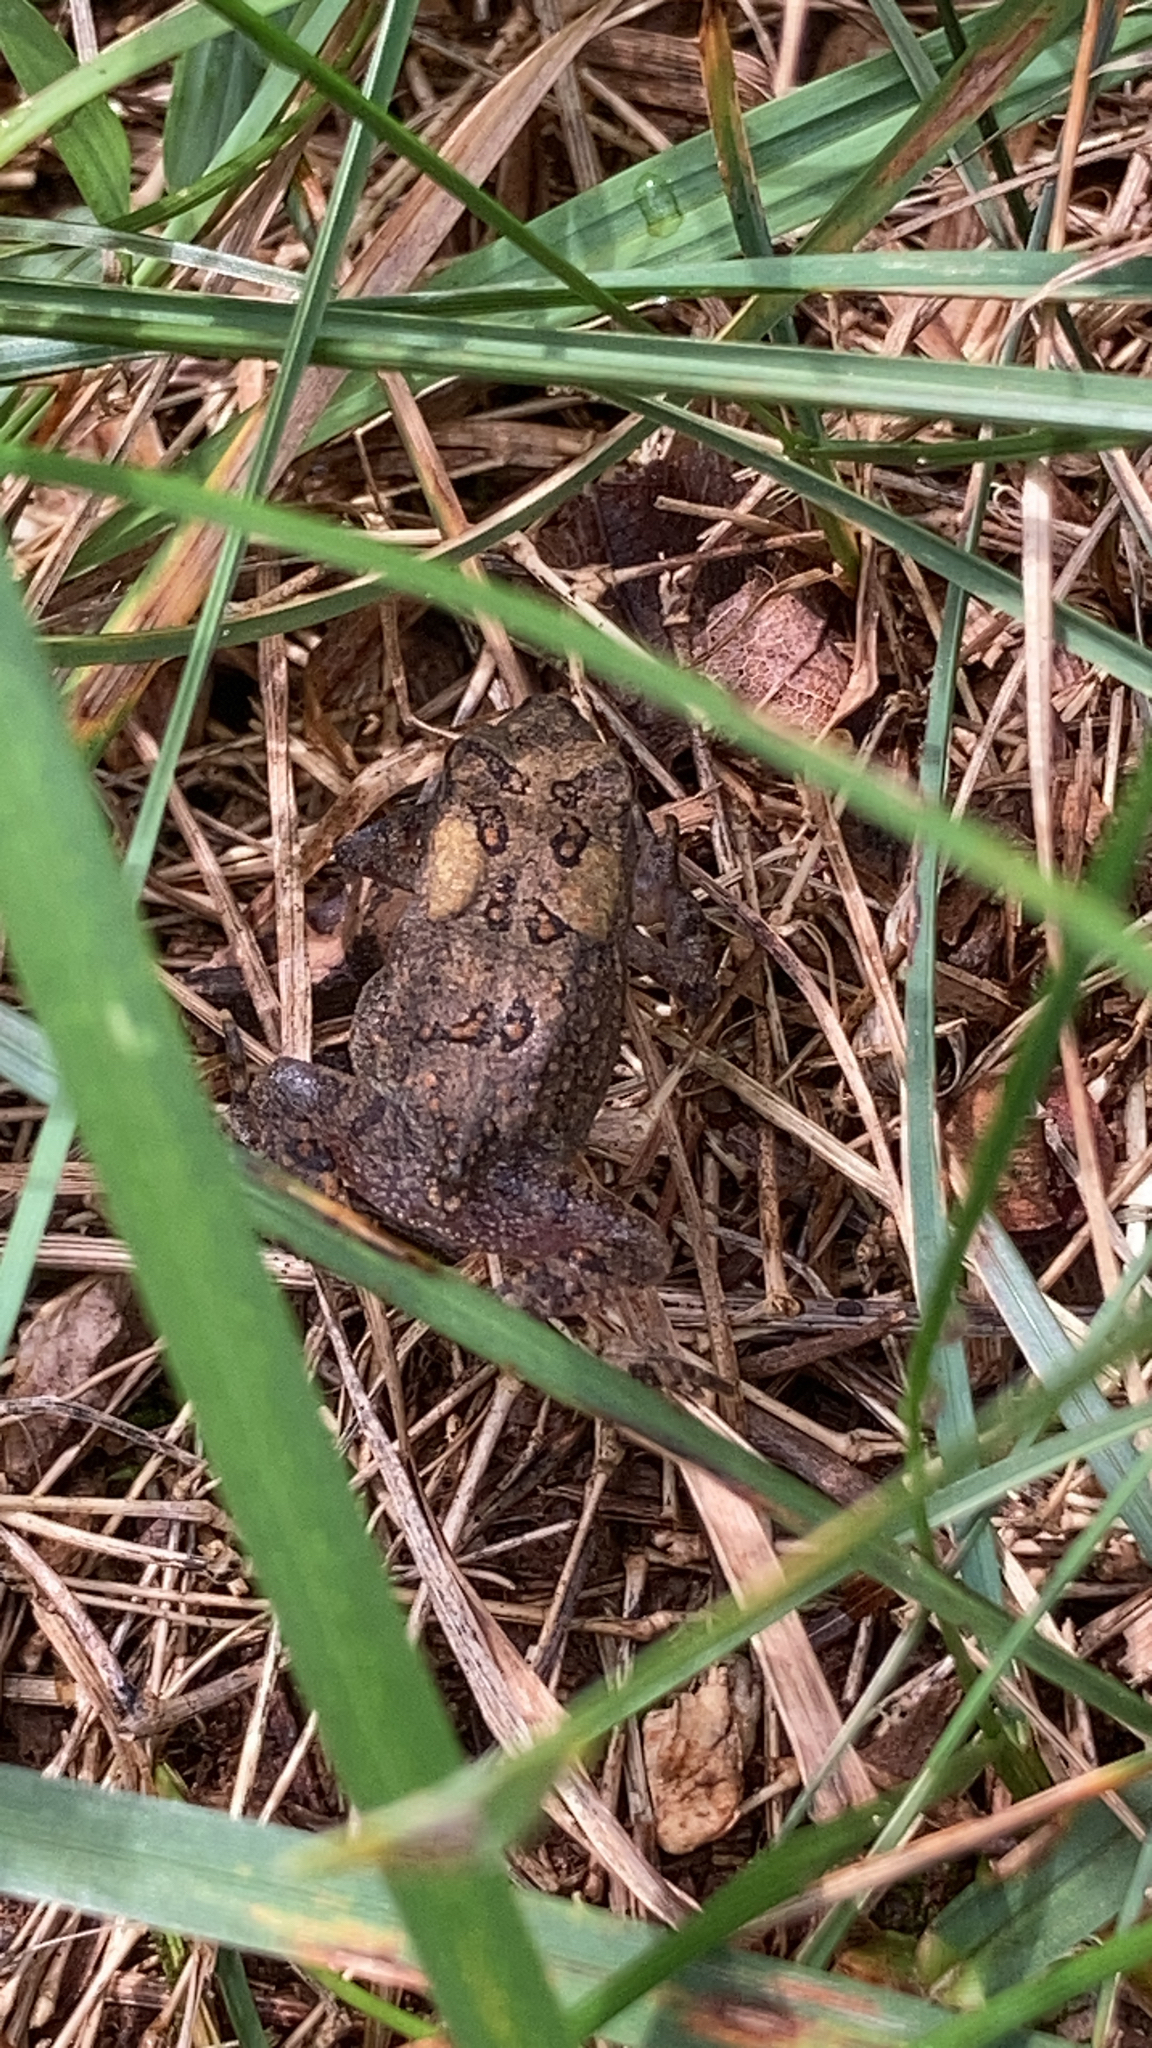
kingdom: Animalia
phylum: Chordata
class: Amphibia
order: Anura
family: Bufonidae
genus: Anaxyrus
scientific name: Anaxyrus americanus
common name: American toad
